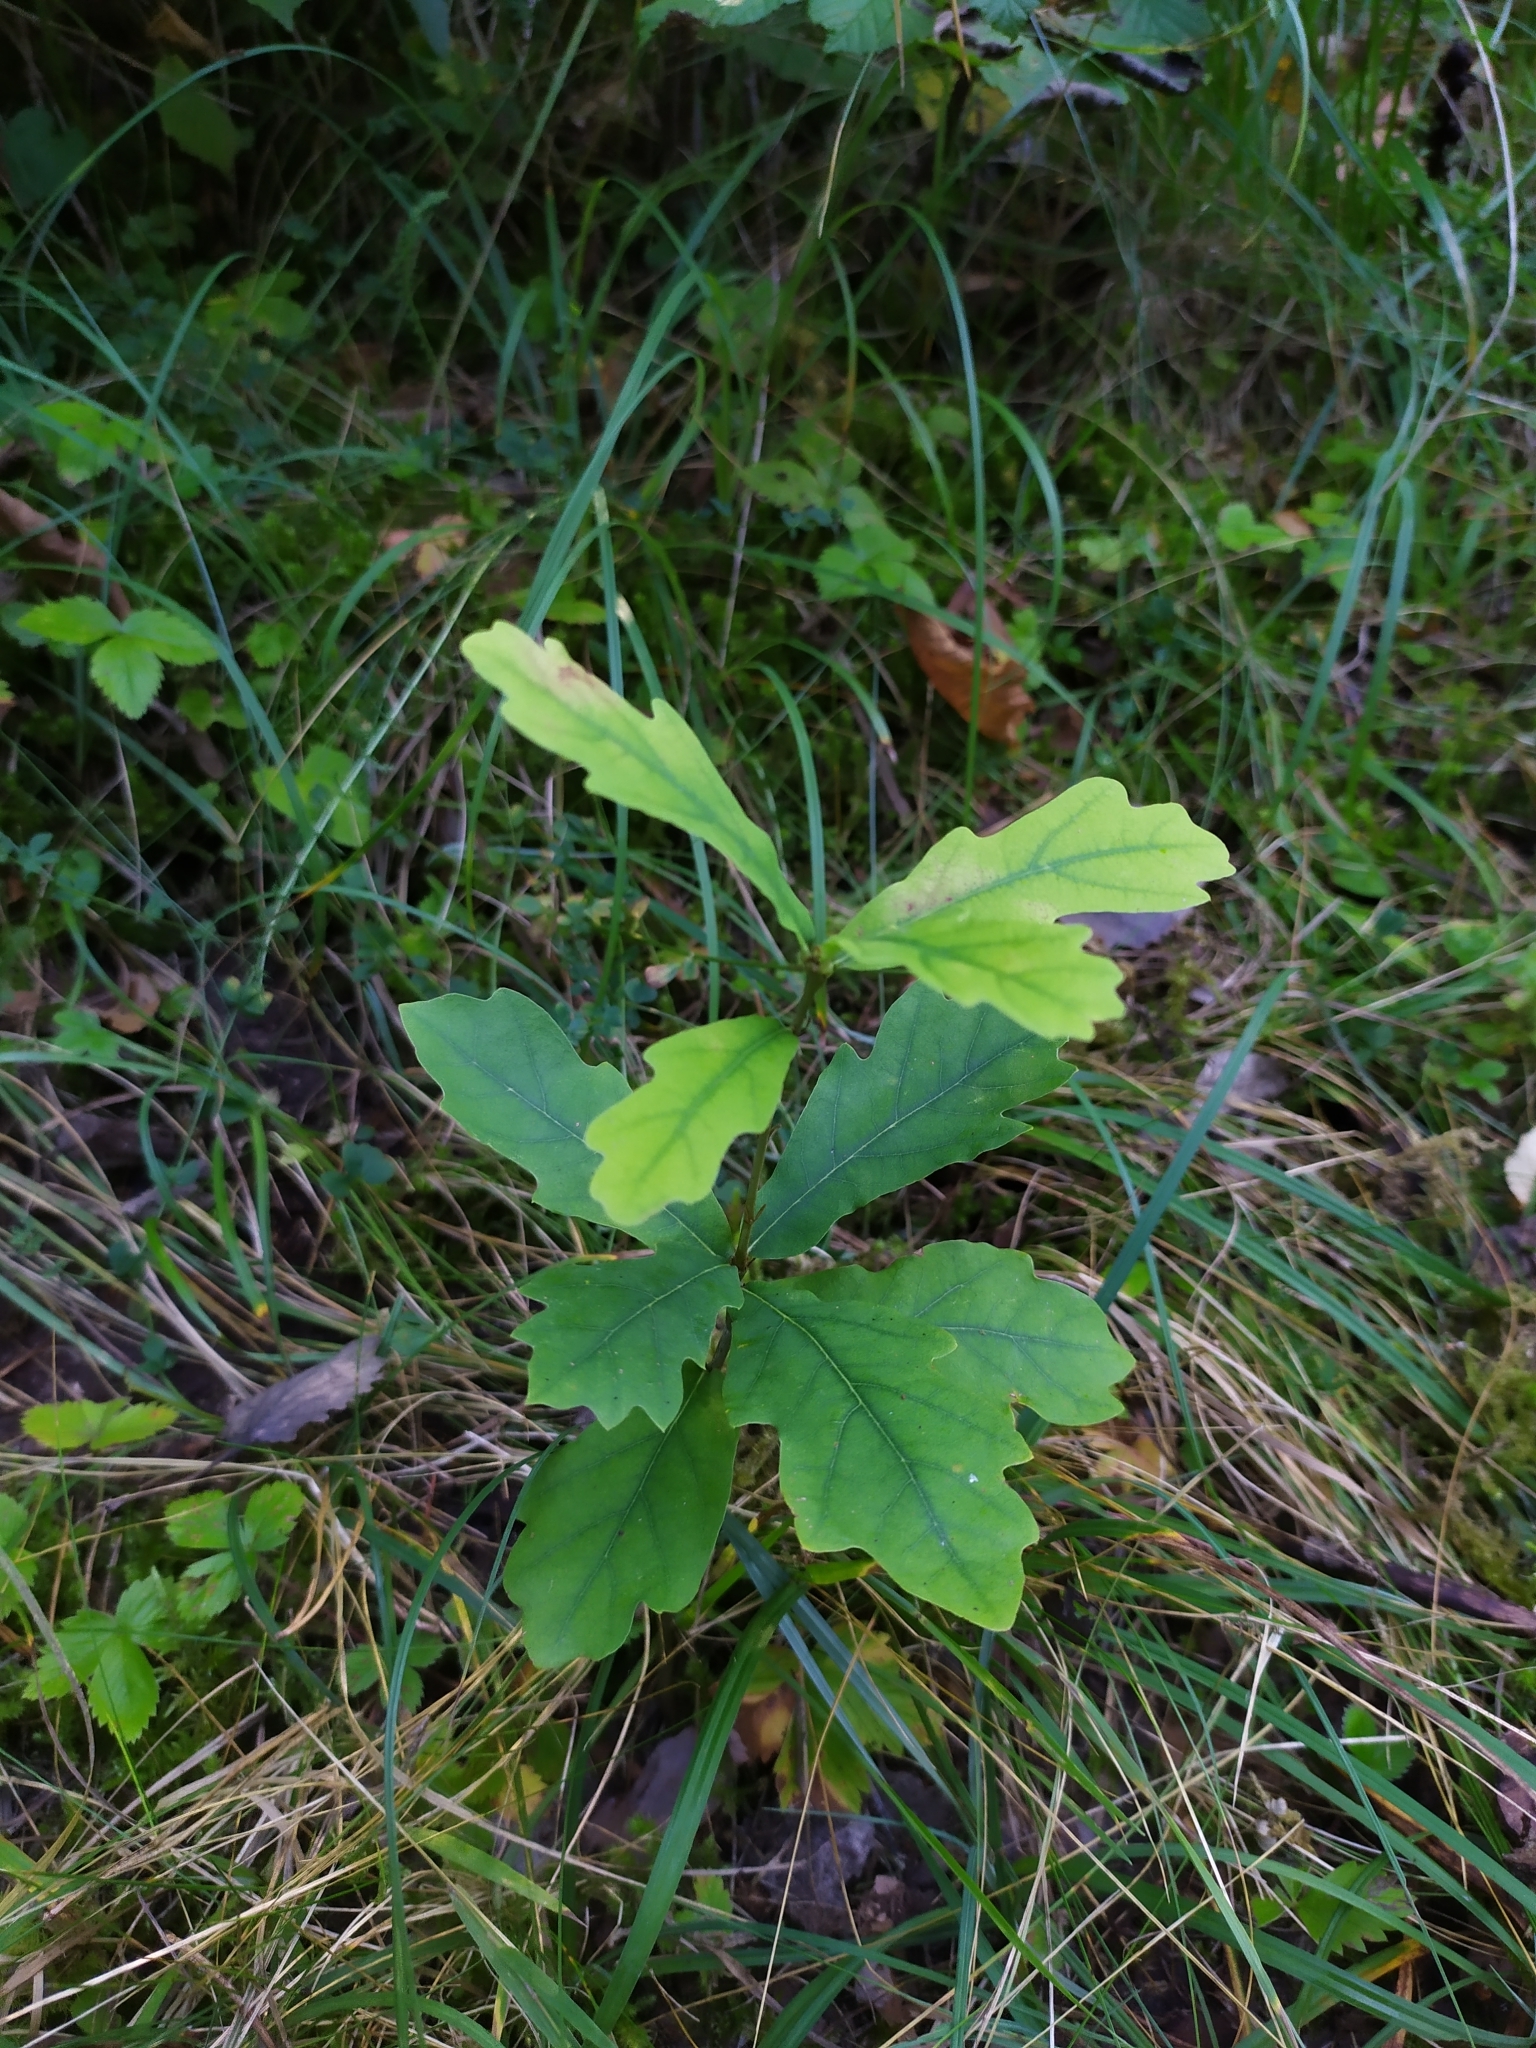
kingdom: Plantae
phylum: Tracheophyta
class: Magnoliopsida
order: Fagales
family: Fagaceae
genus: Quercus
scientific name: Quercus robur
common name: Pedunculate oak
